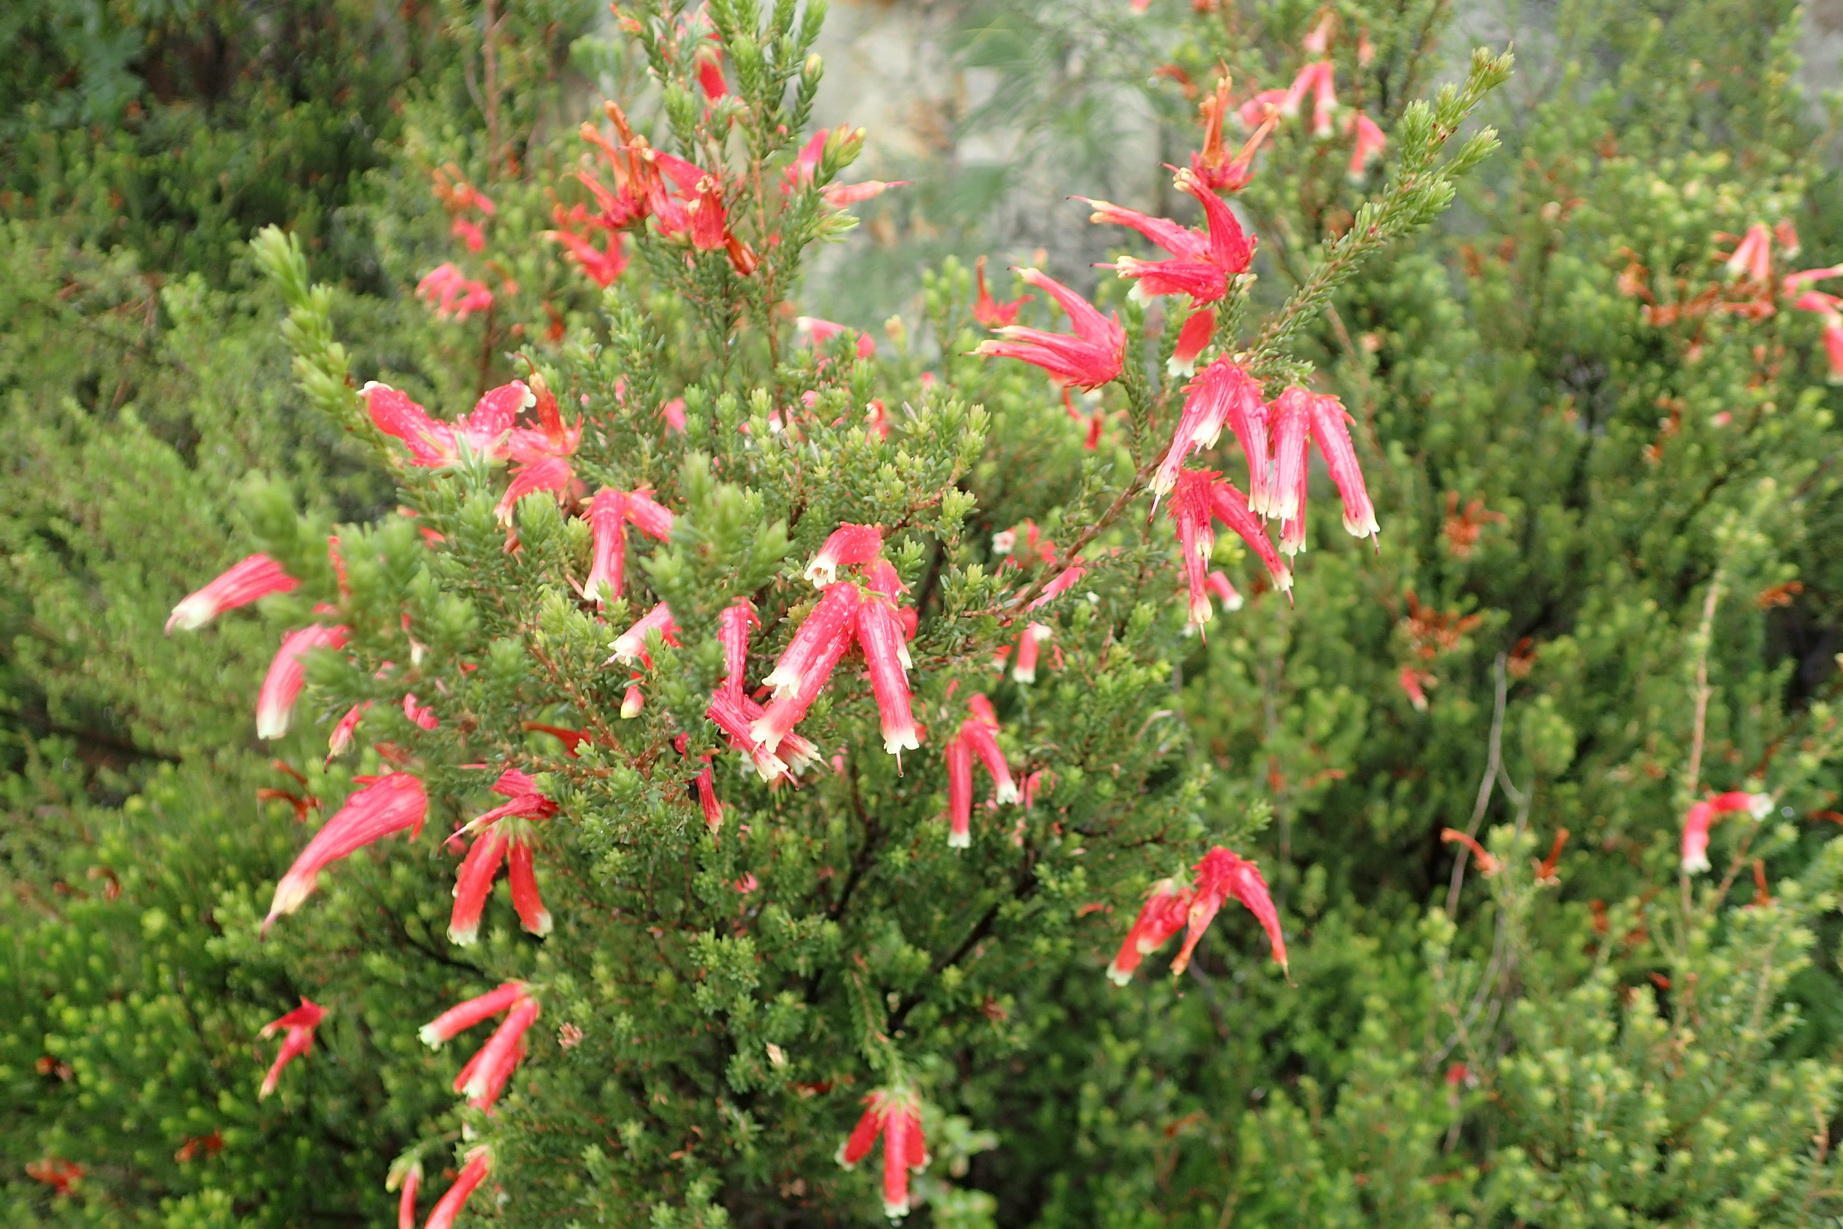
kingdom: Plantae
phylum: Tracheophyta
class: Magnoliopsida
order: Ericales
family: Ericaceae
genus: Erica
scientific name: Erica versicolor
